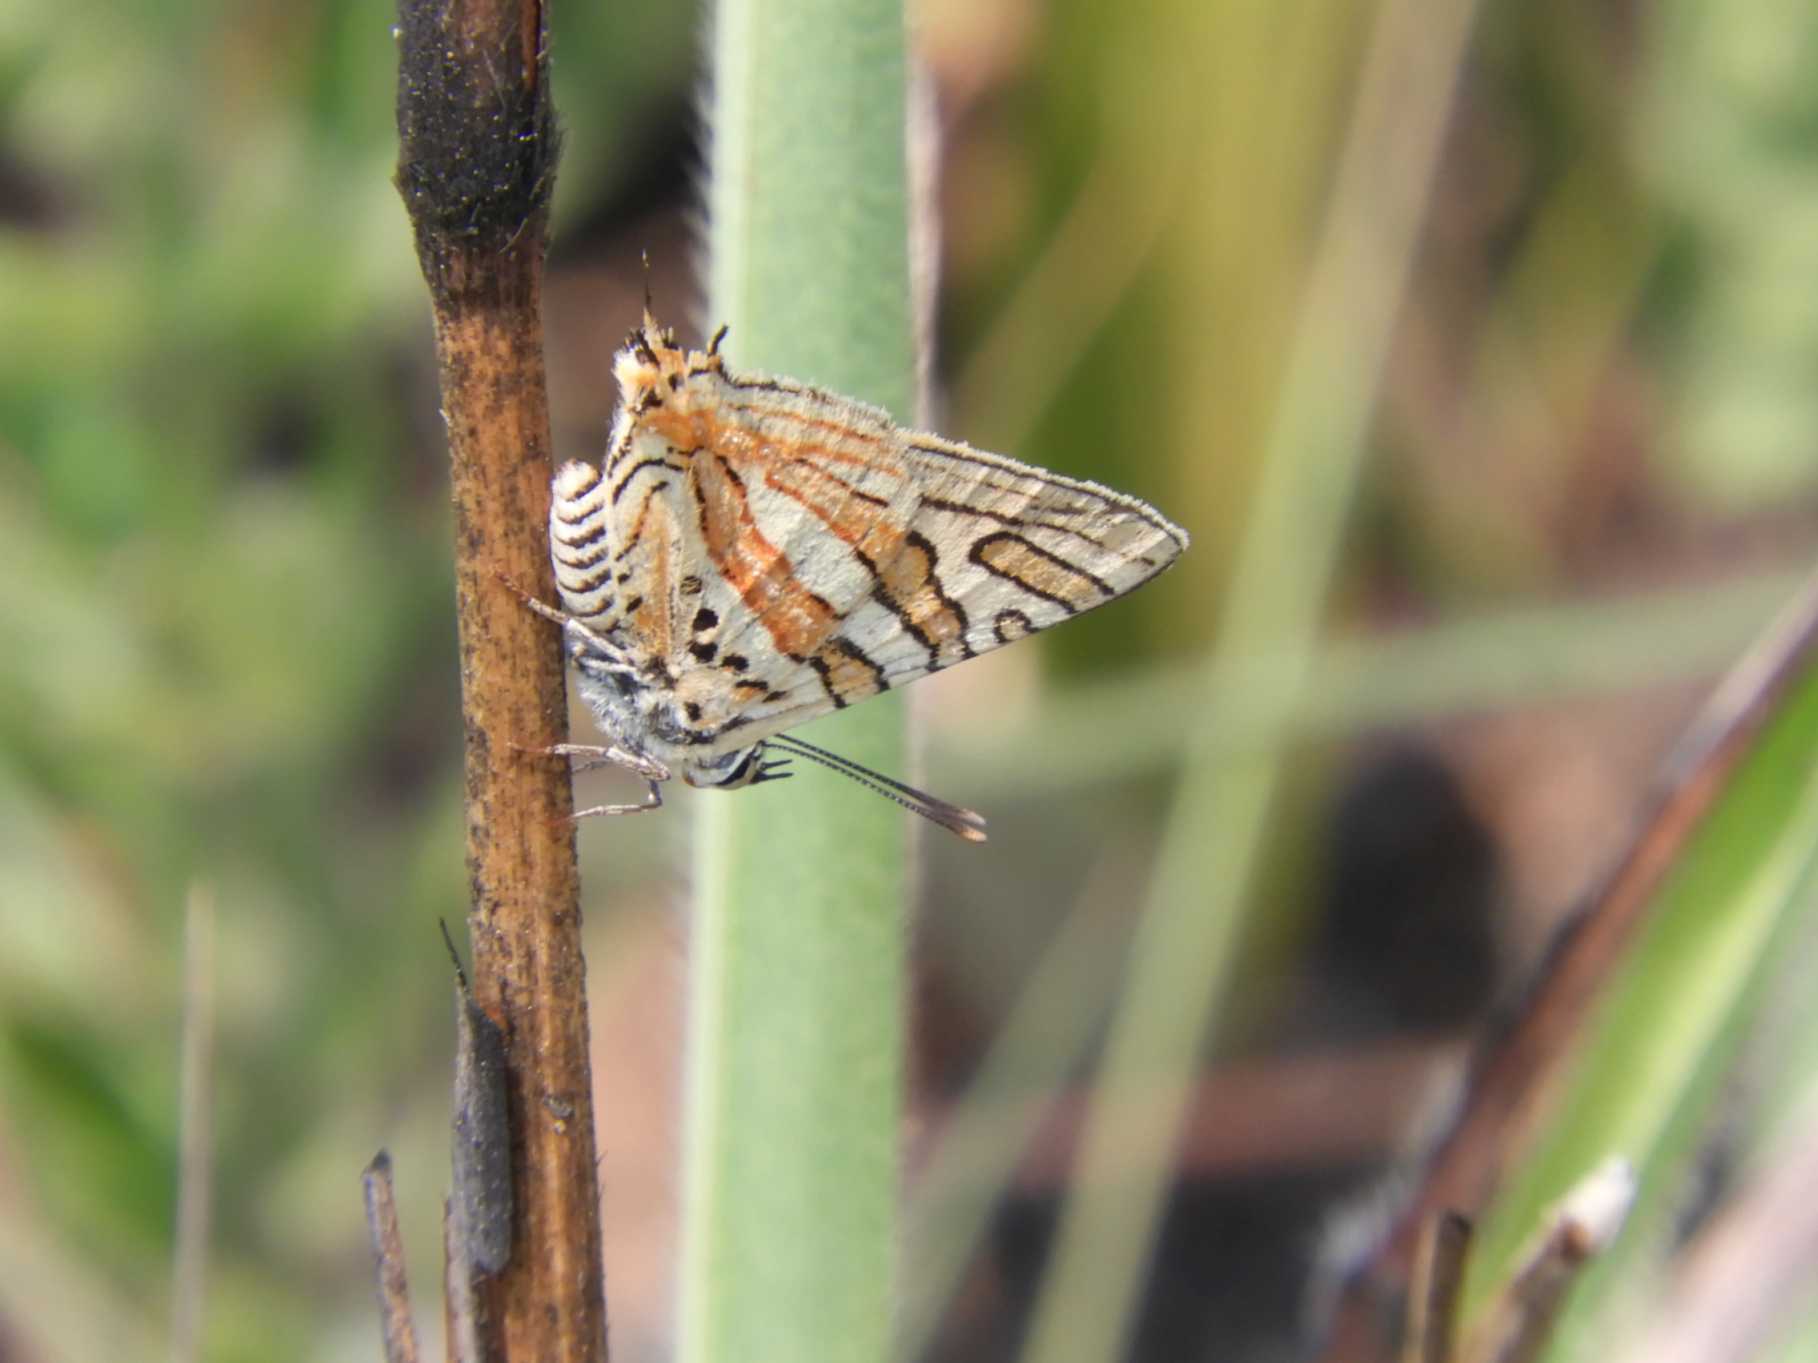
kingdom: Animalia
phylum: Arthropoda
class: Insecta
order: Lepidoptera
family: Lycaenidae
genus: Cigaritis
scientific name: Cigaritis mozambica
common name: Mozambique bar
